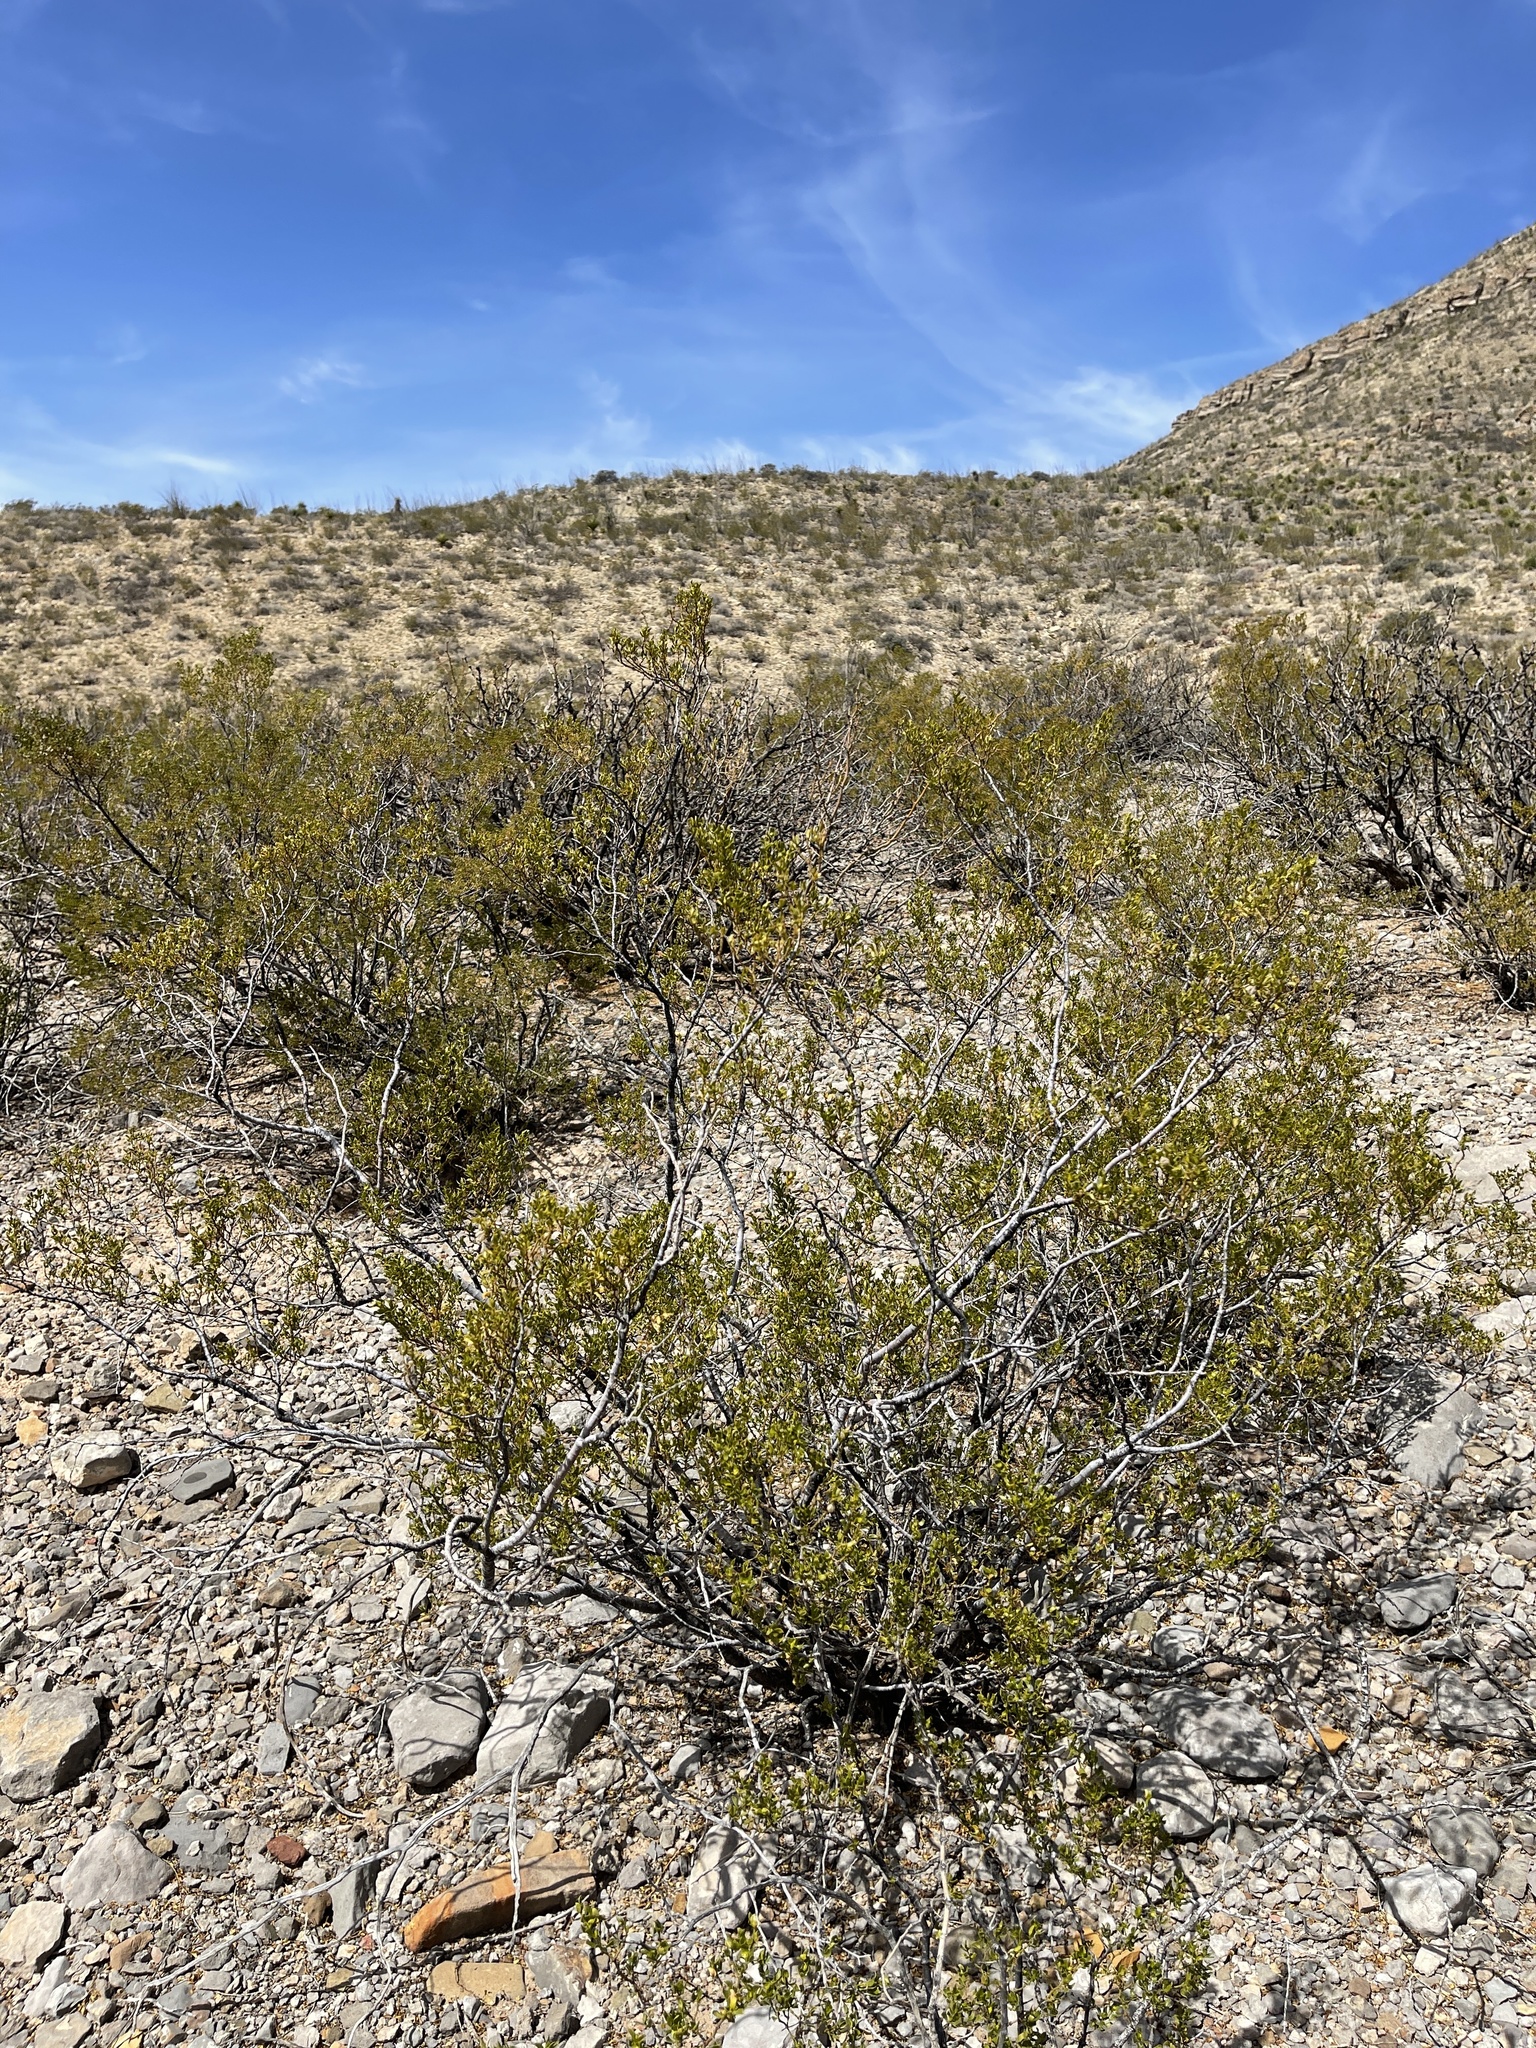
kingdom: Plantae
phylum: Tracheophyta
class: Magnoliopsida
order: Zygophyllales
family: Zygophyllaceae
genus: Larrea
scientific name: Larrea tridentata
